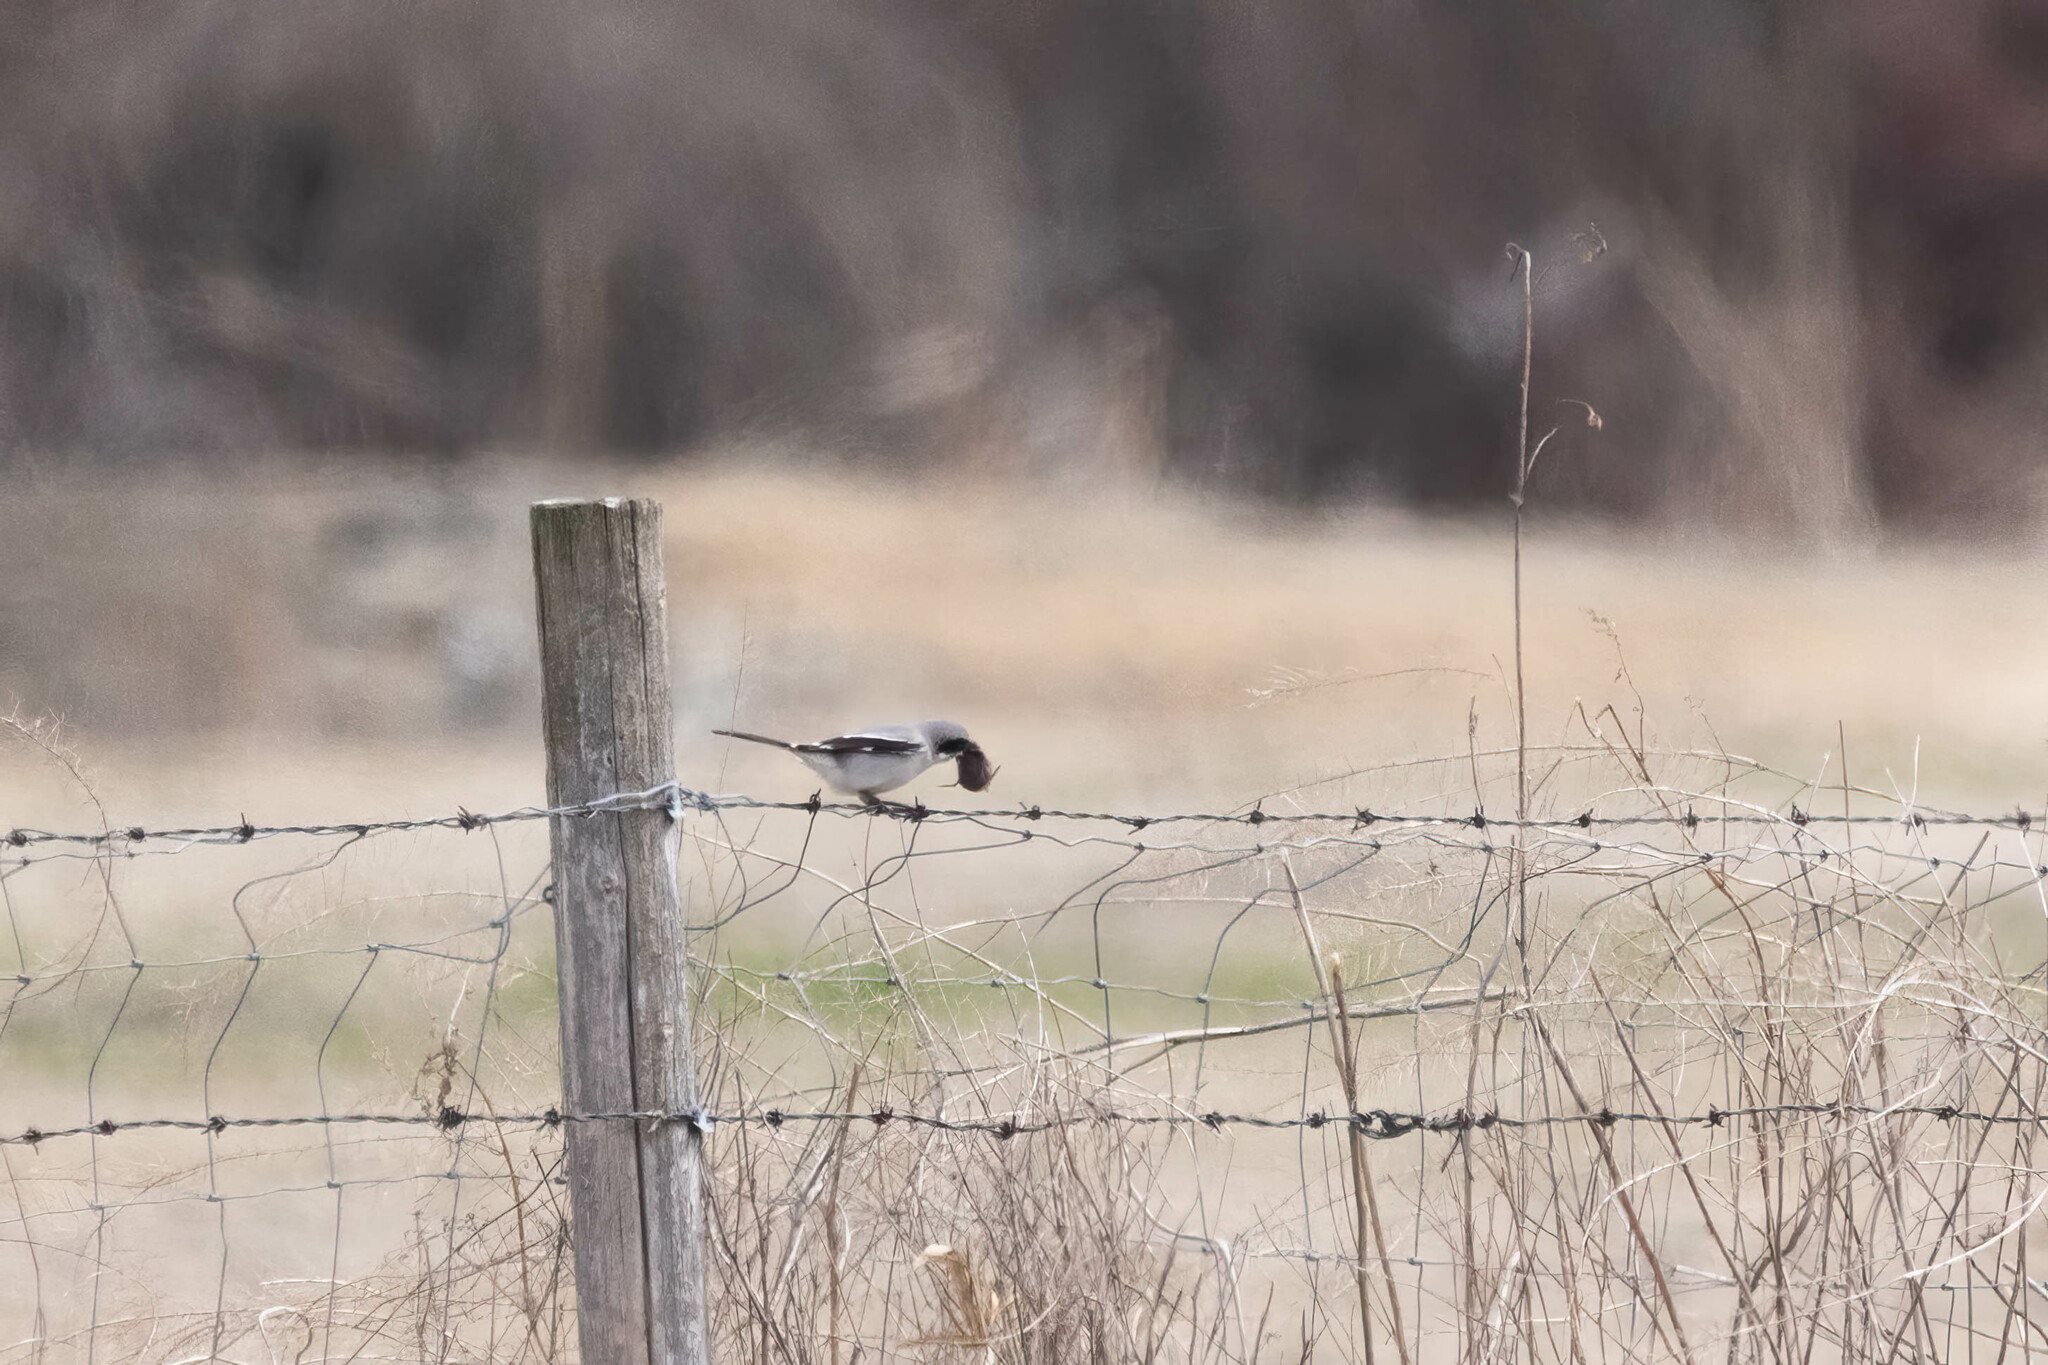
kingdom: Animalia
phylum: Chordata
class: Aves
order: Passeriformes
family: Laniidae
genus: Lanius
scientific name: Lanius ludovicianus
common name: Loggerhead shrike
